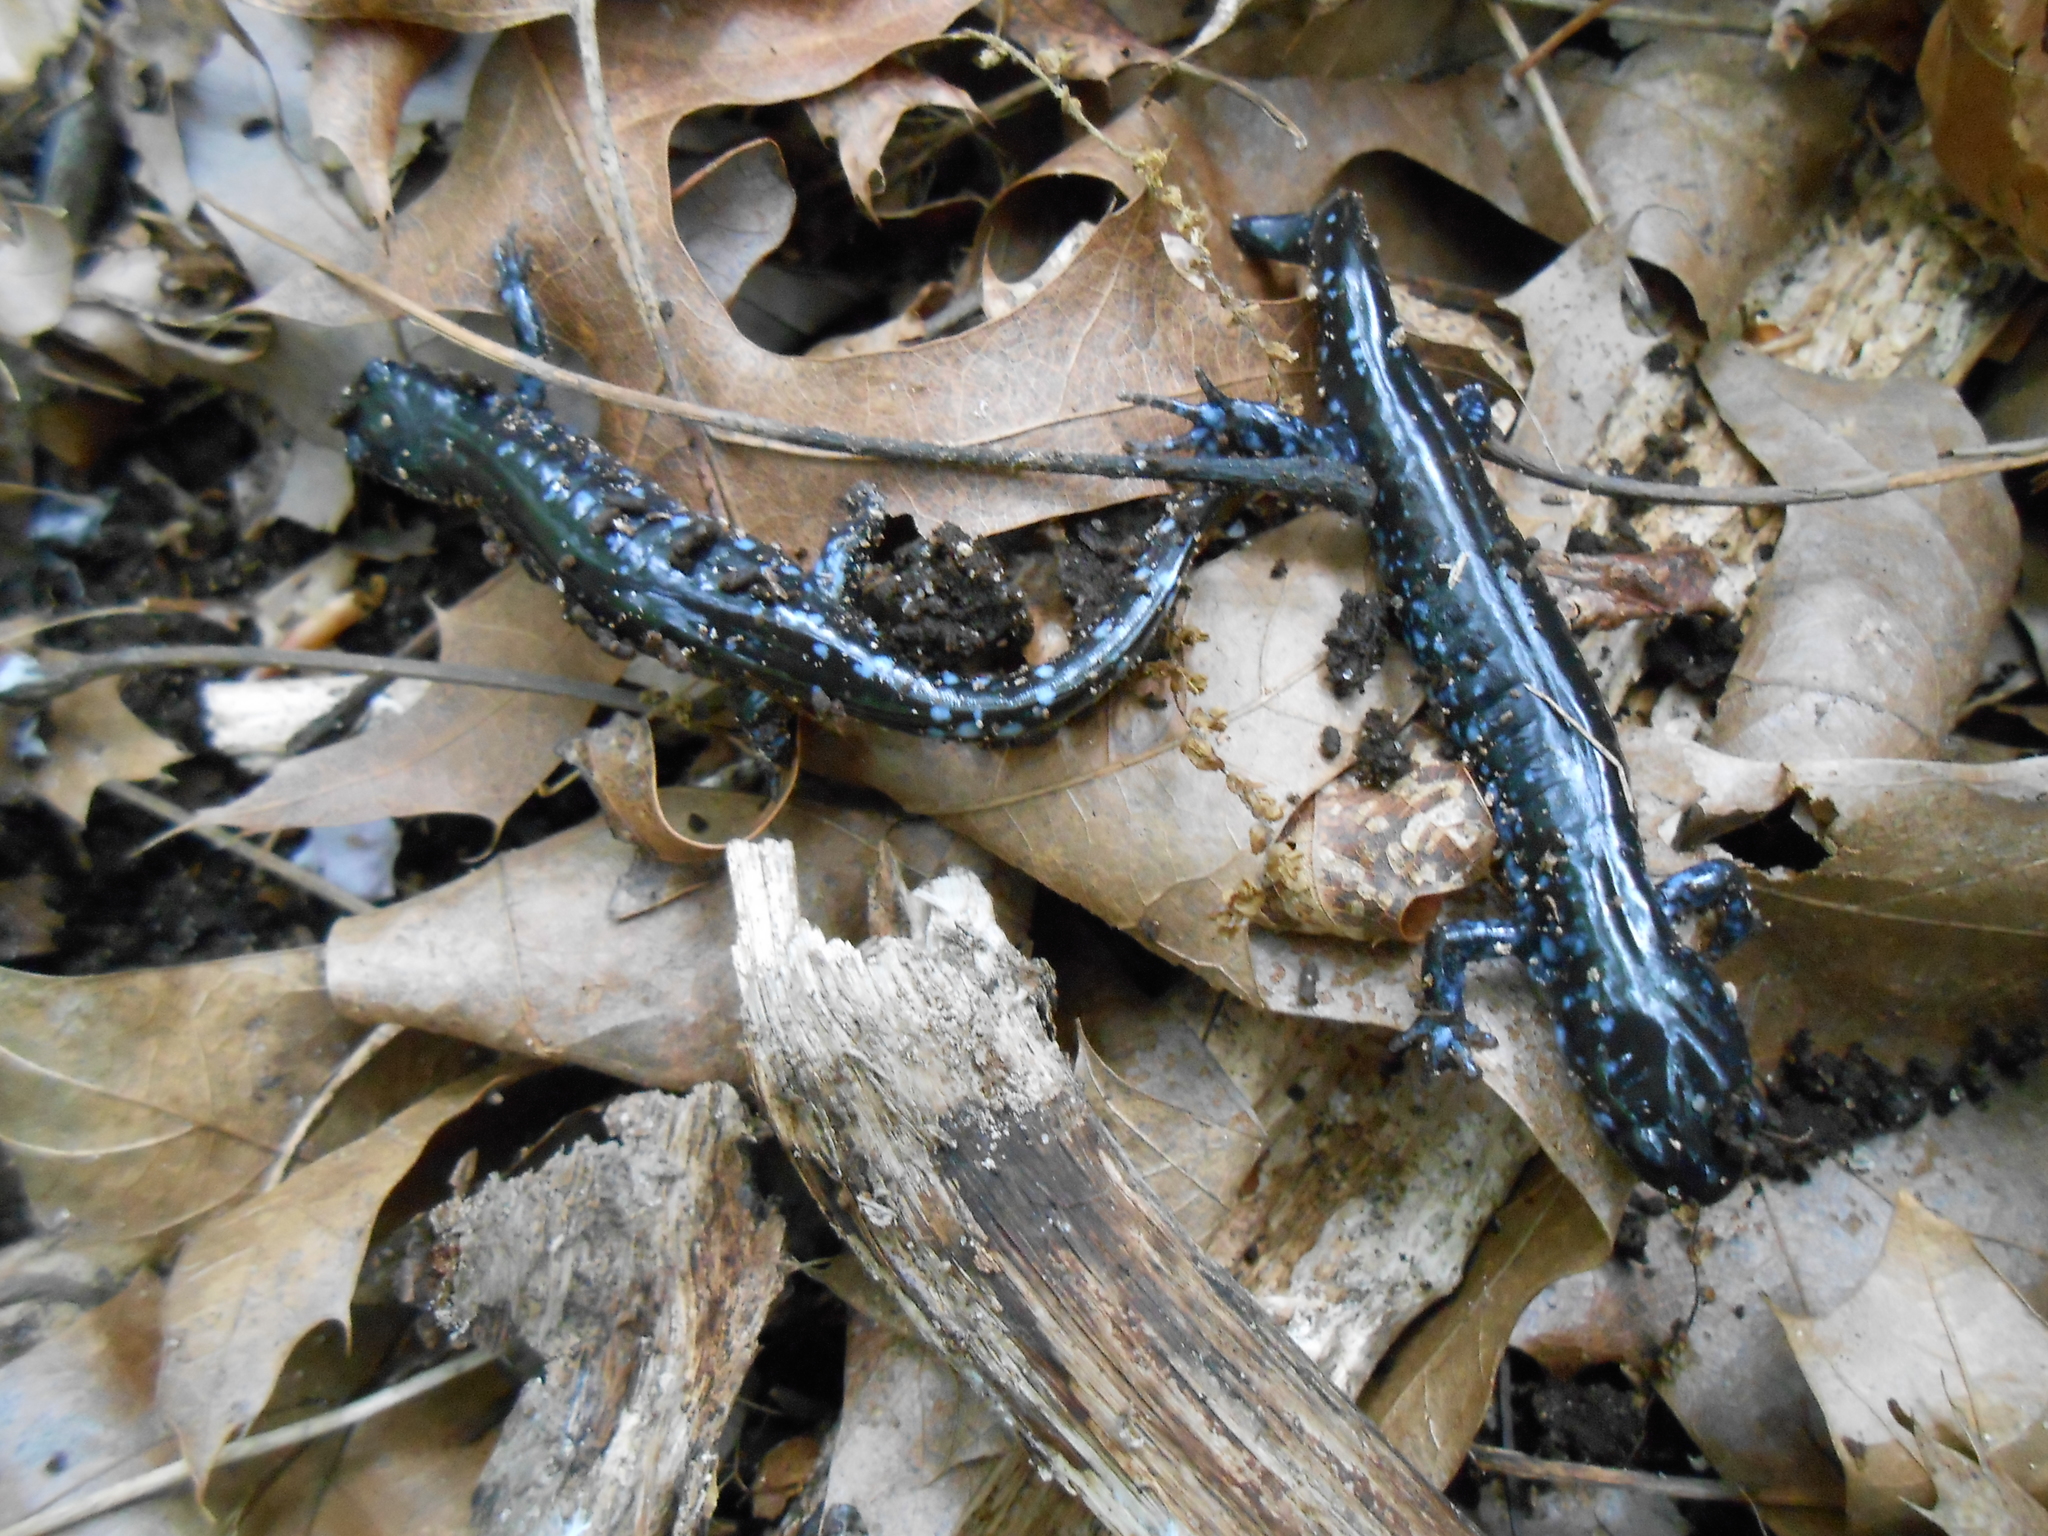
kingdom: Animalia
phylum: Chordata
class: Amphibia
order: Caudata
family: Ambystomatidae
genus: Ambystoma
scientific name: Ambystoma laterale
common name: Blue-spotted salamander
